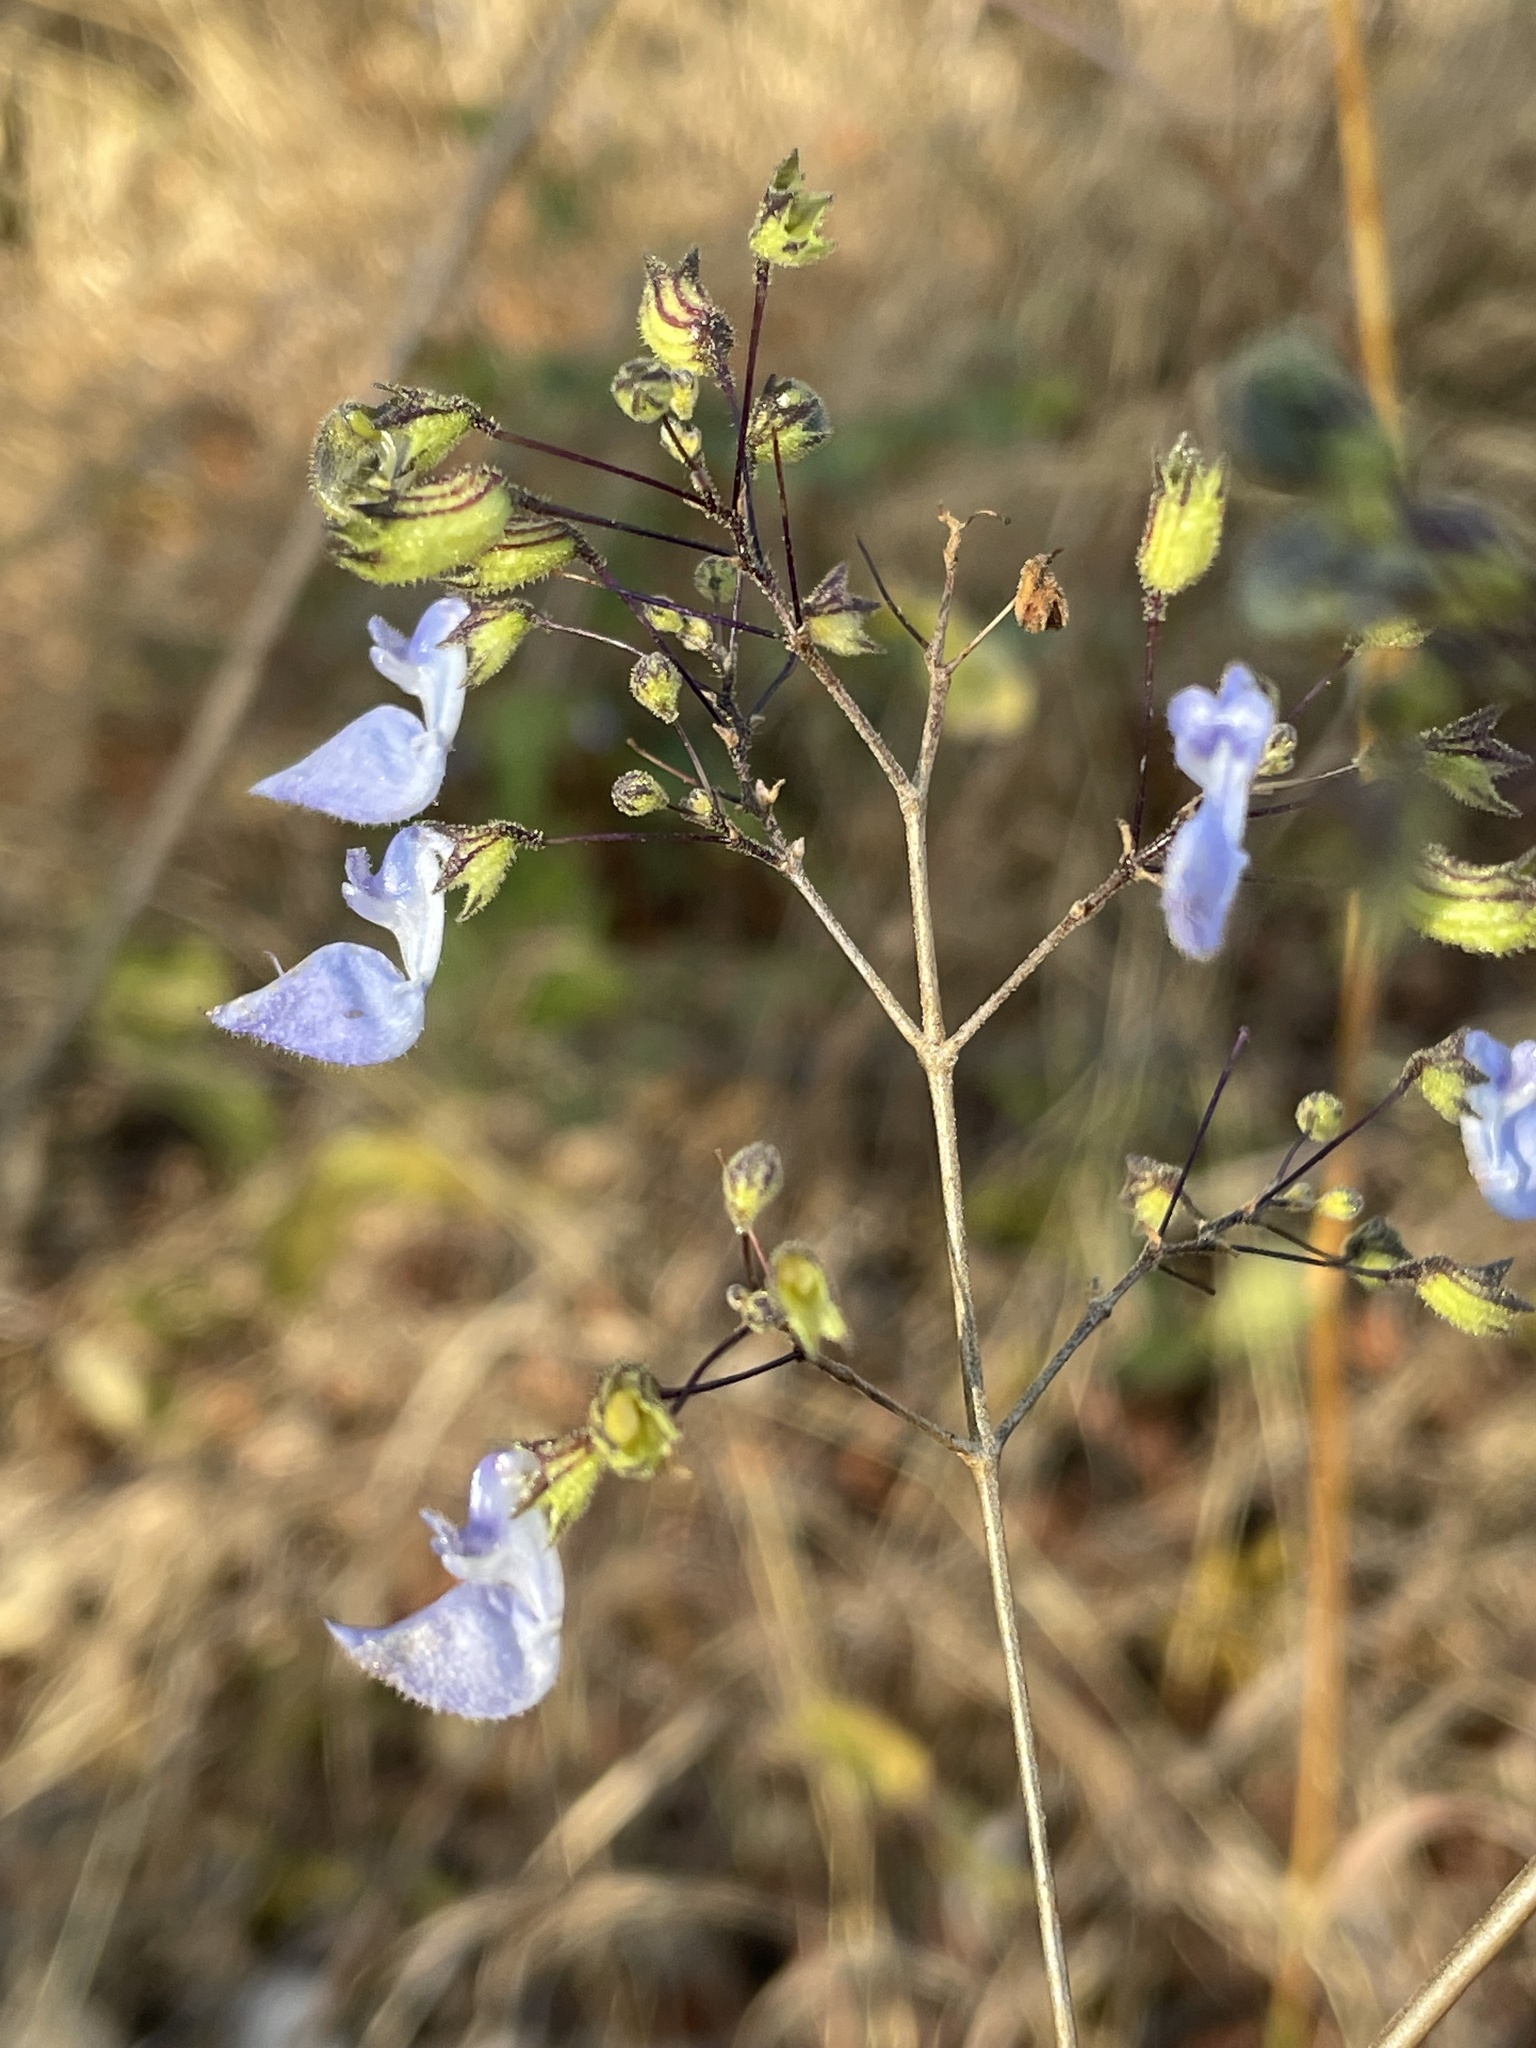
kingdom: Plantae
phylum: Tracheophyta
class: Magnoliopsida
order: Lamiales
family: Lamiaceae
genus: Coleus
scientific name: Coleus gracillimus
